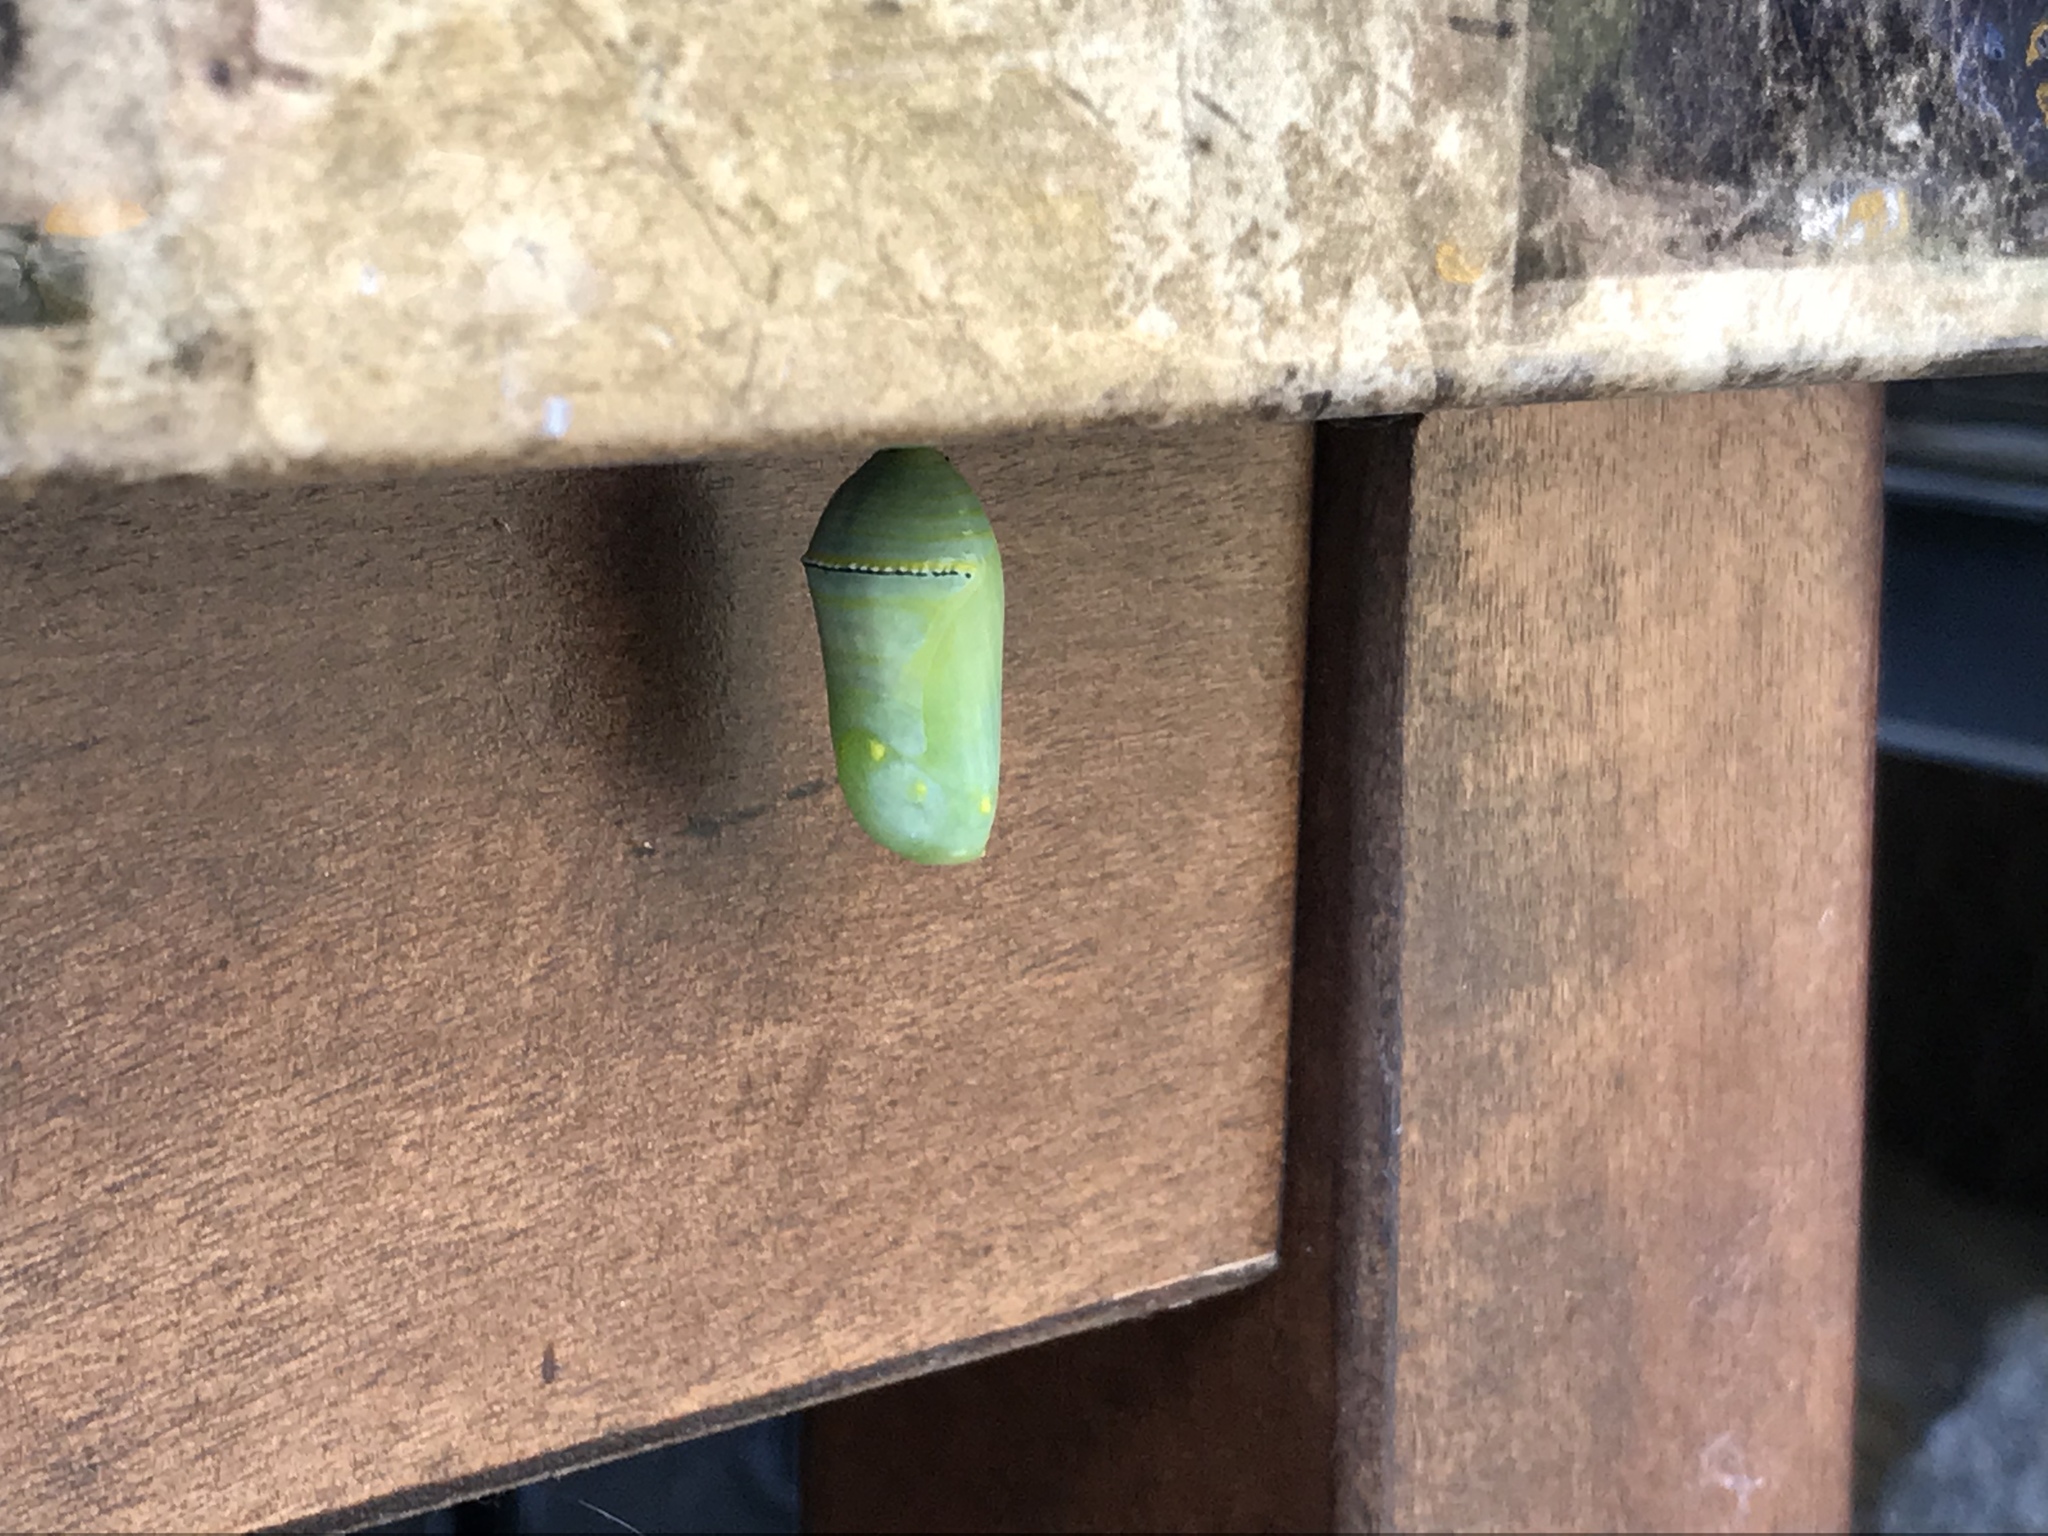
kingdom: Animalia
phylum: Arthropoda
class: Insecta
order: Lepidoptera
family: Nymphalidae
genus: Danaus
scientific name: Danaus plexippus
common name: Monarch
